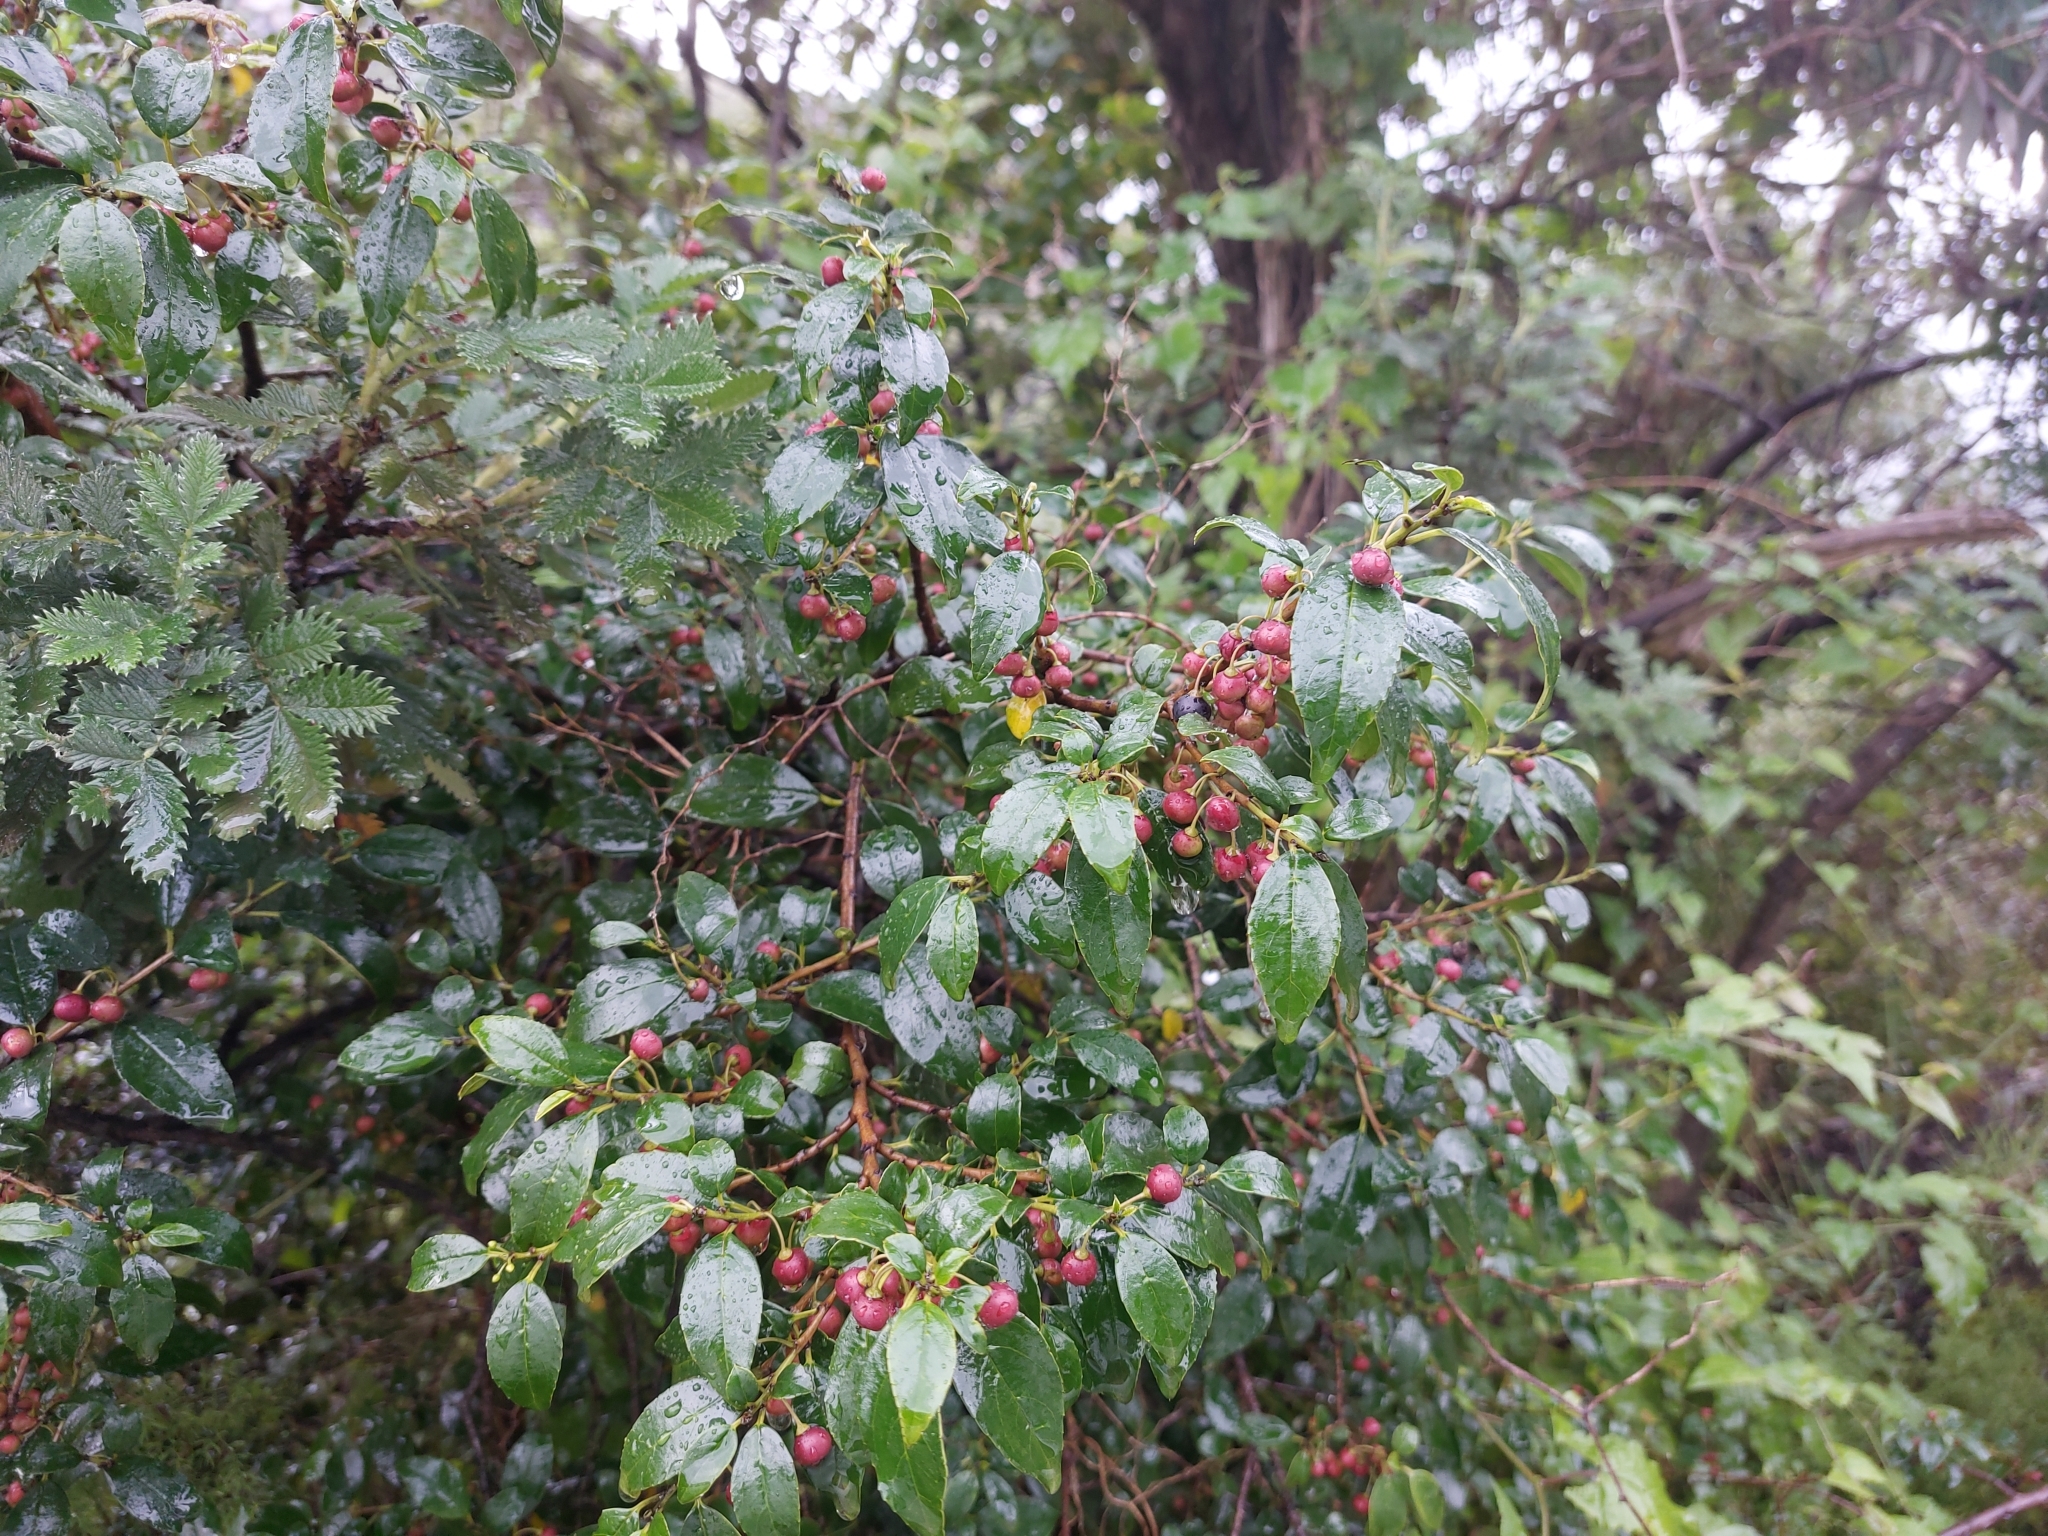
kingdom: Plantae
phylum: Tracheophyta
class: Magnoliopsida
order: Rosales
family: Rhamnaceae
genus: Rhamnus
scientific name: Rhamnus prinoides
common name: Dogwood
